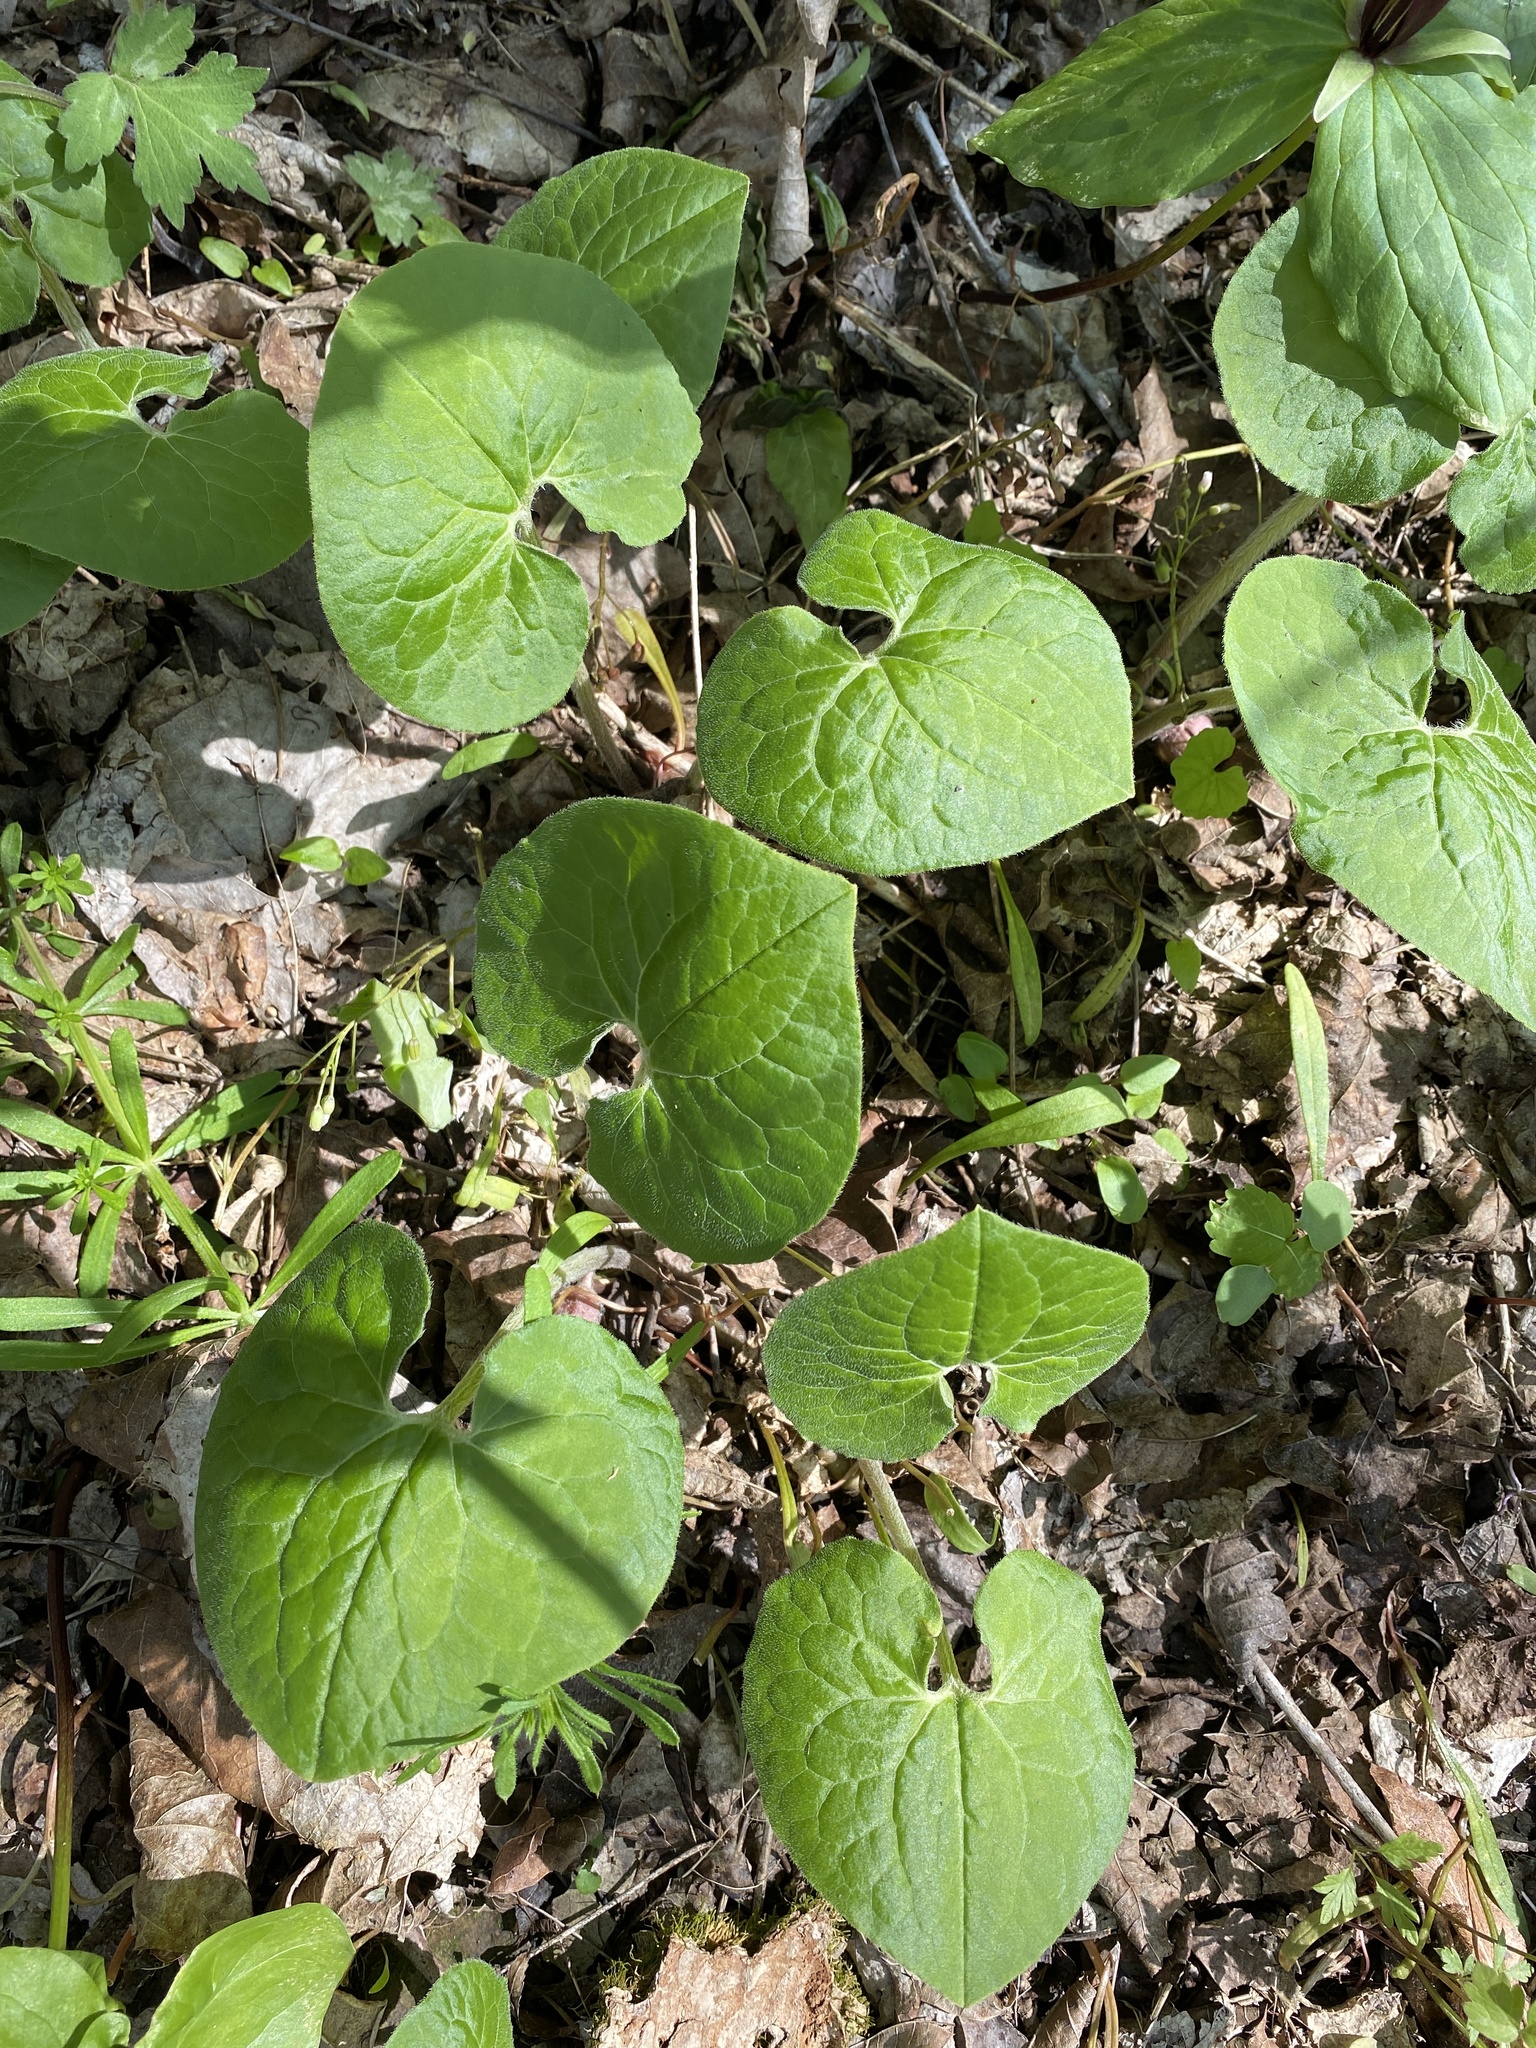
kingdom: Plantae
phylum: Tracheophyta
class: Magnoliopsida
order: Piperales
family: Aristolochiaceae
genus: Asarum
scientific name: Asarum canadense
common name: Wild ginger
